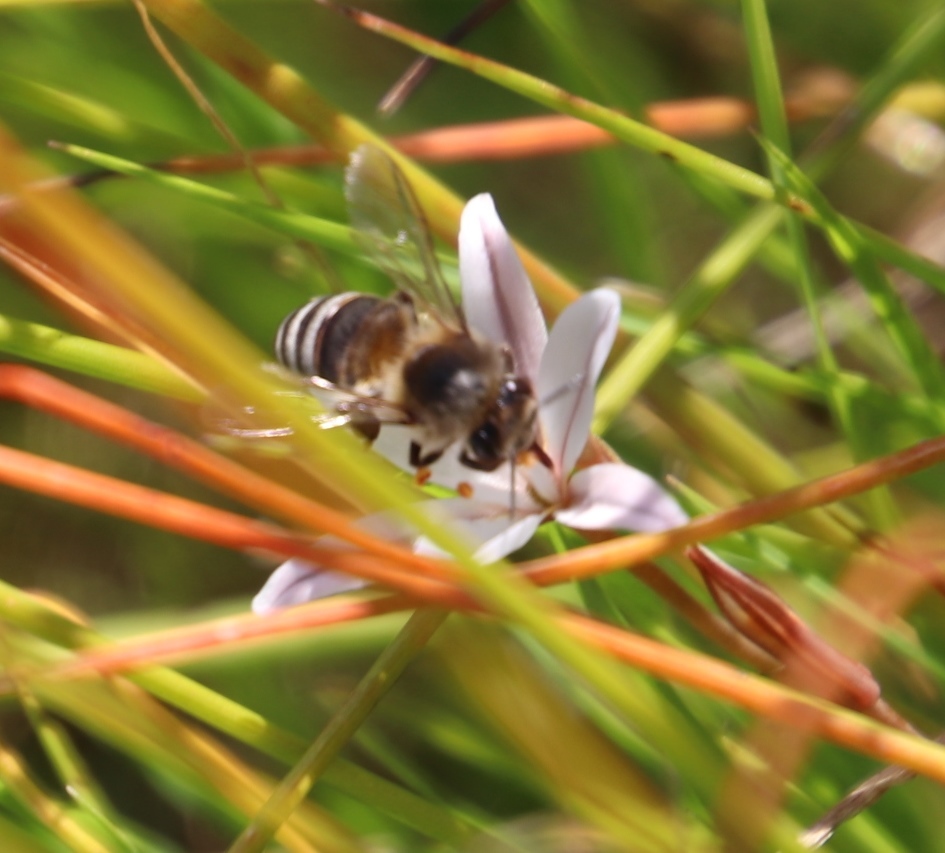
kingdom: Animalia
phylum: Arthropoda
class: Insecta
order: Hymenoptera
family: Apidae
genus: Apis
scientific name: Apis mellifera
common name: Honey bee
